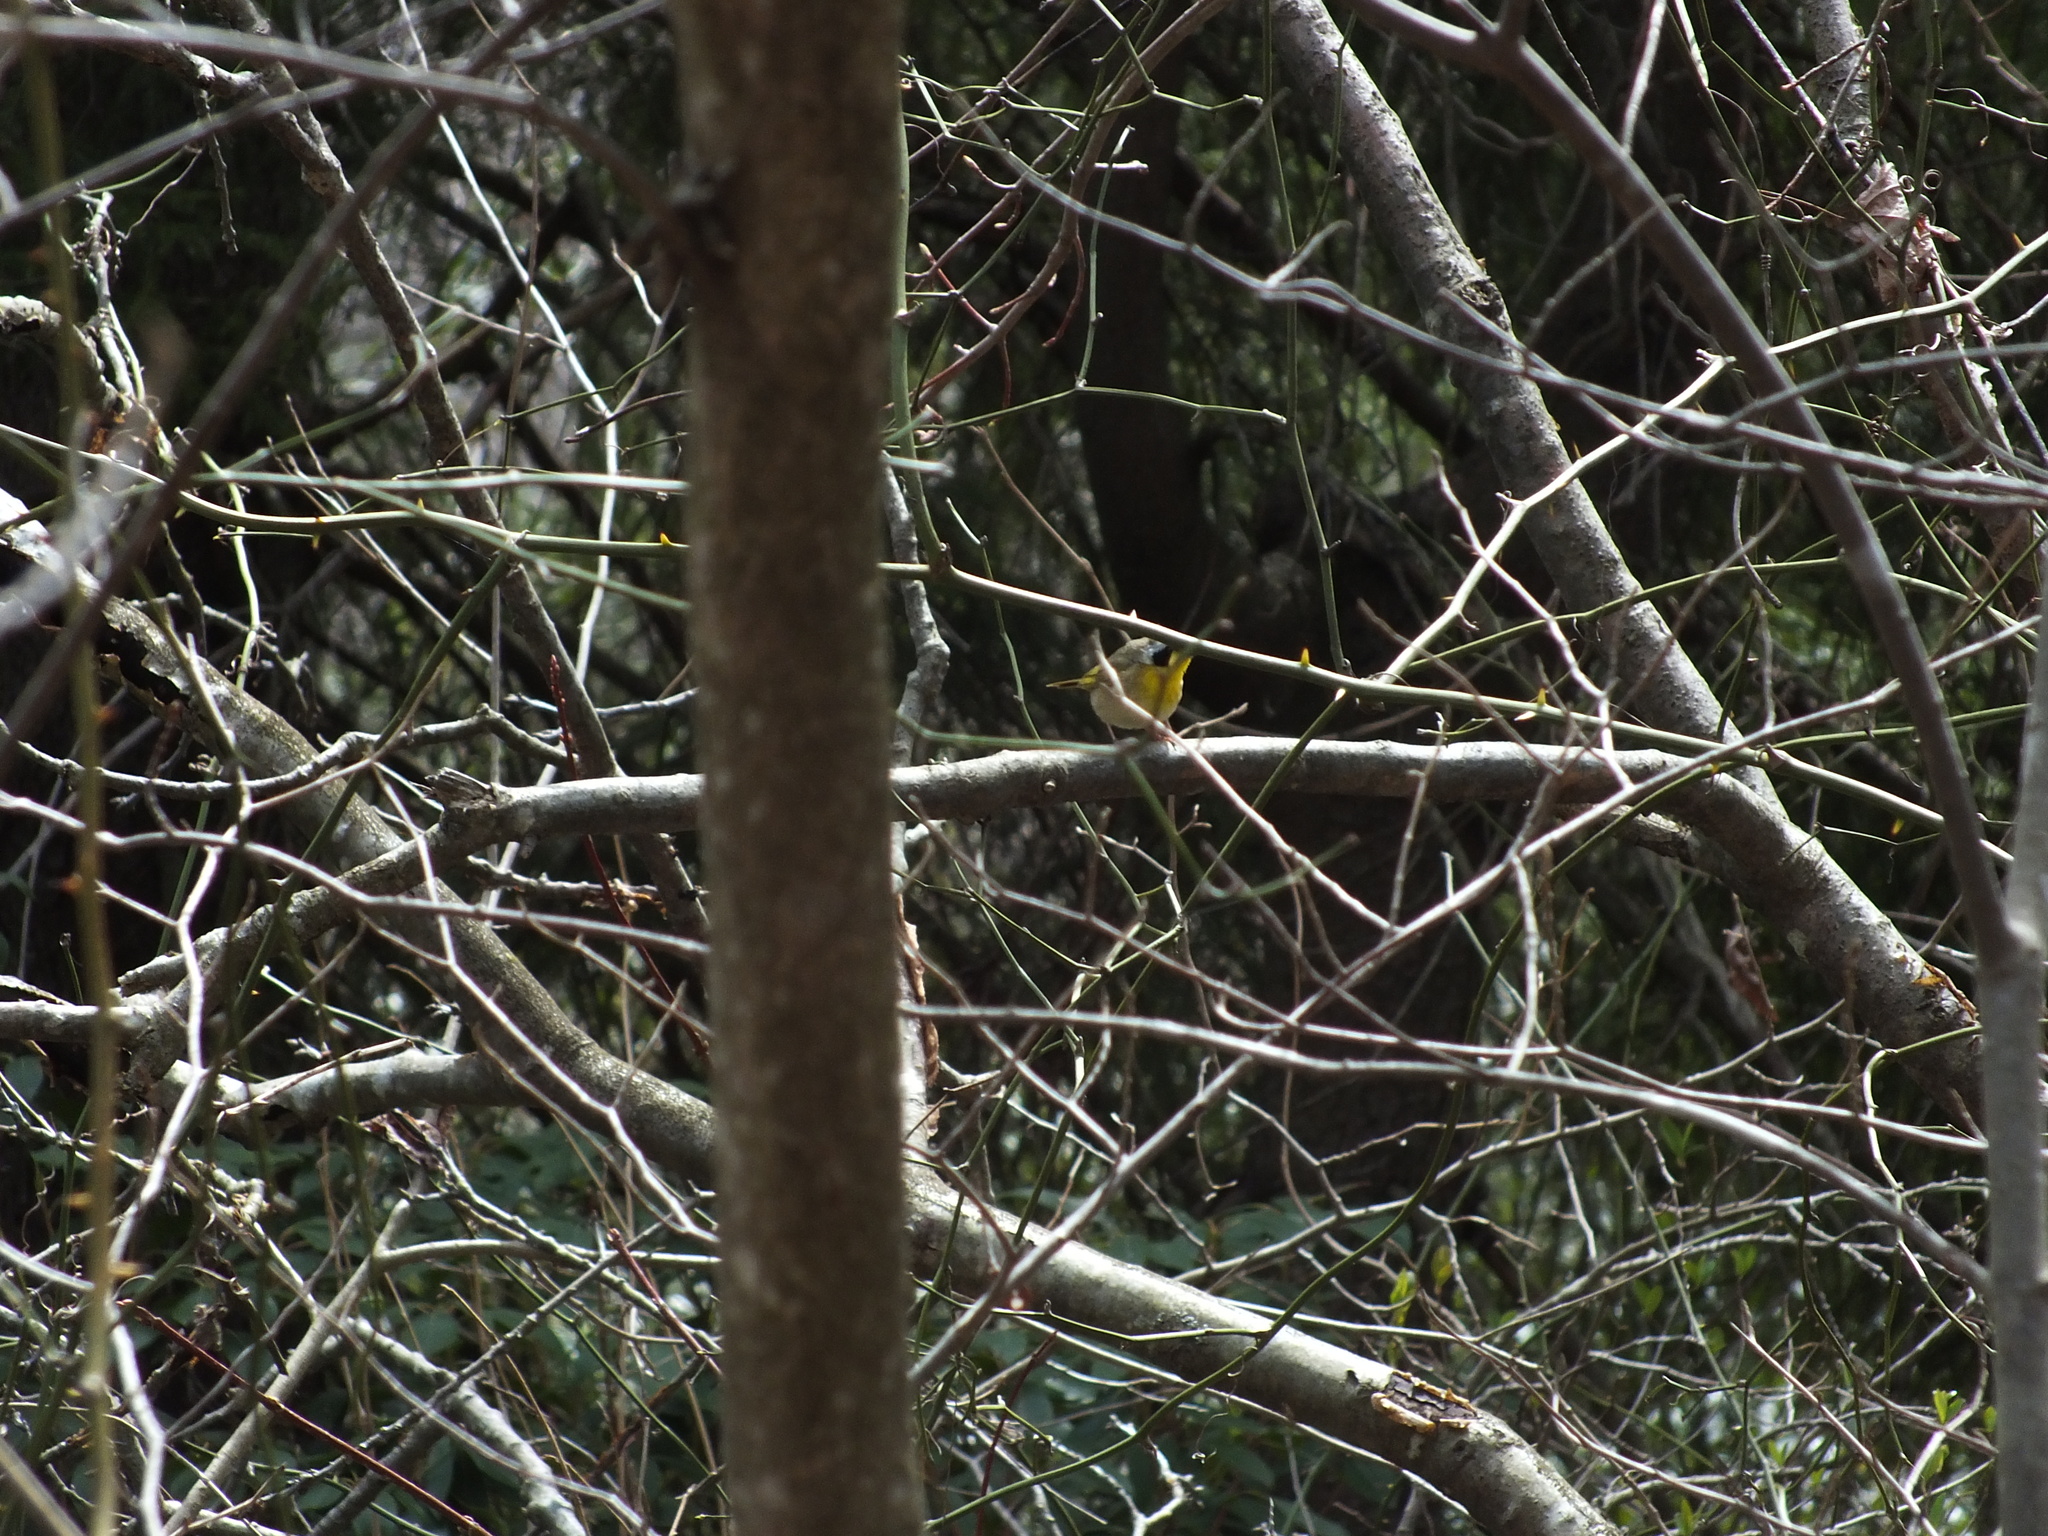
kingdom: Animalia
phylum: Chordata
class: Aves
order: Passeriformes
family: Parulidae
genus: Geothlypis
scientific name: Geothlypis trichas
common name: Common yellowthroat
